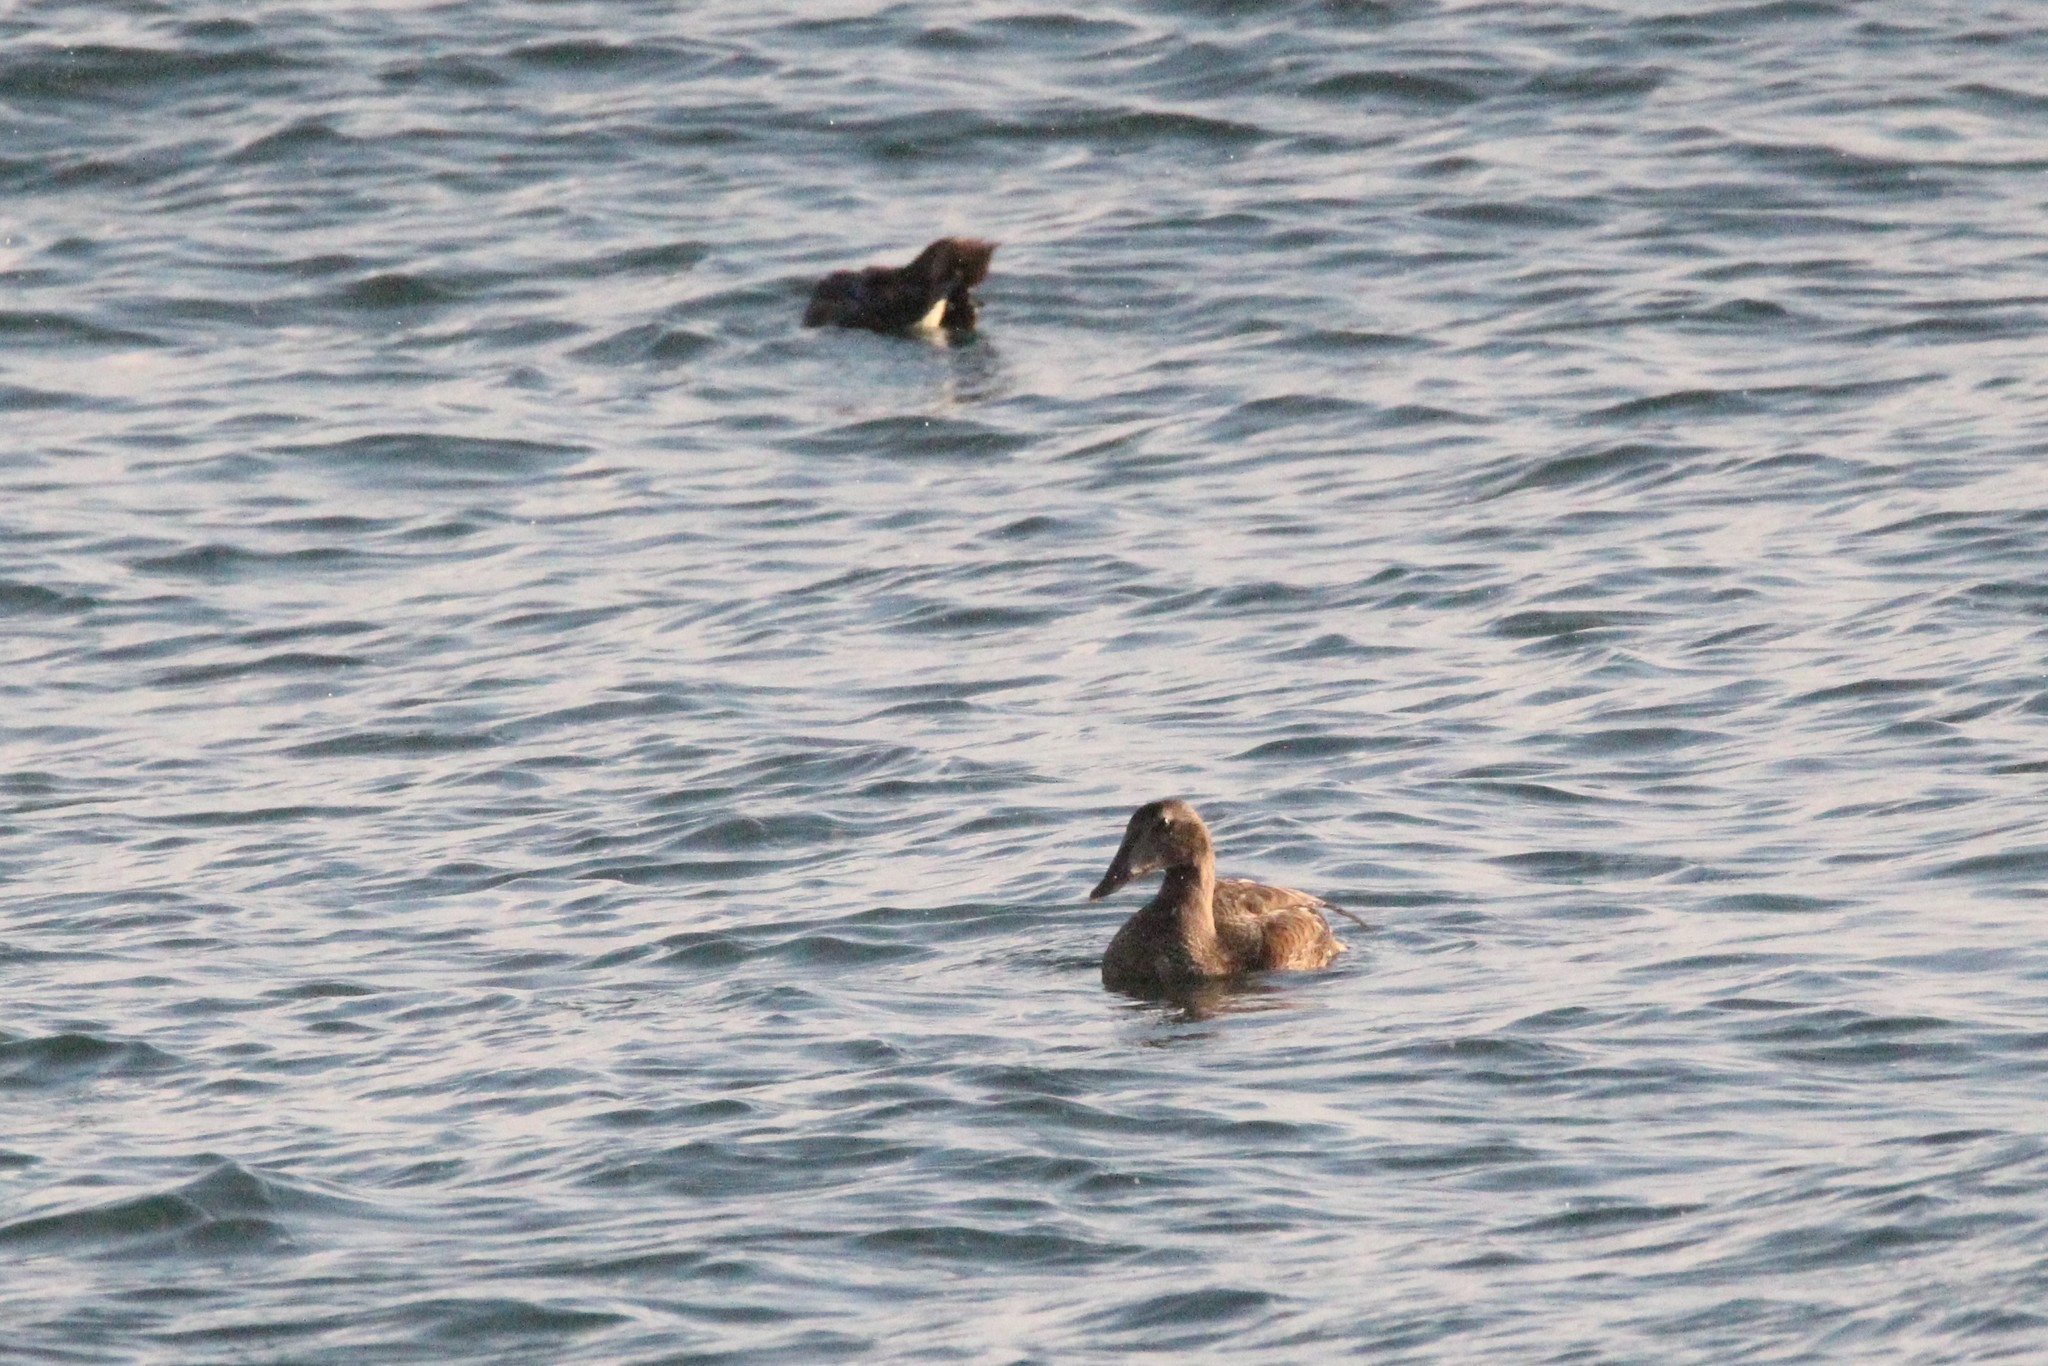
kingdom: Animalia
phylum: Chordata
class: Aves
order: Anseriformes
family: Anatidae
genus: Somateria
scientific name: Somateria mollissima
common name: Common eider
